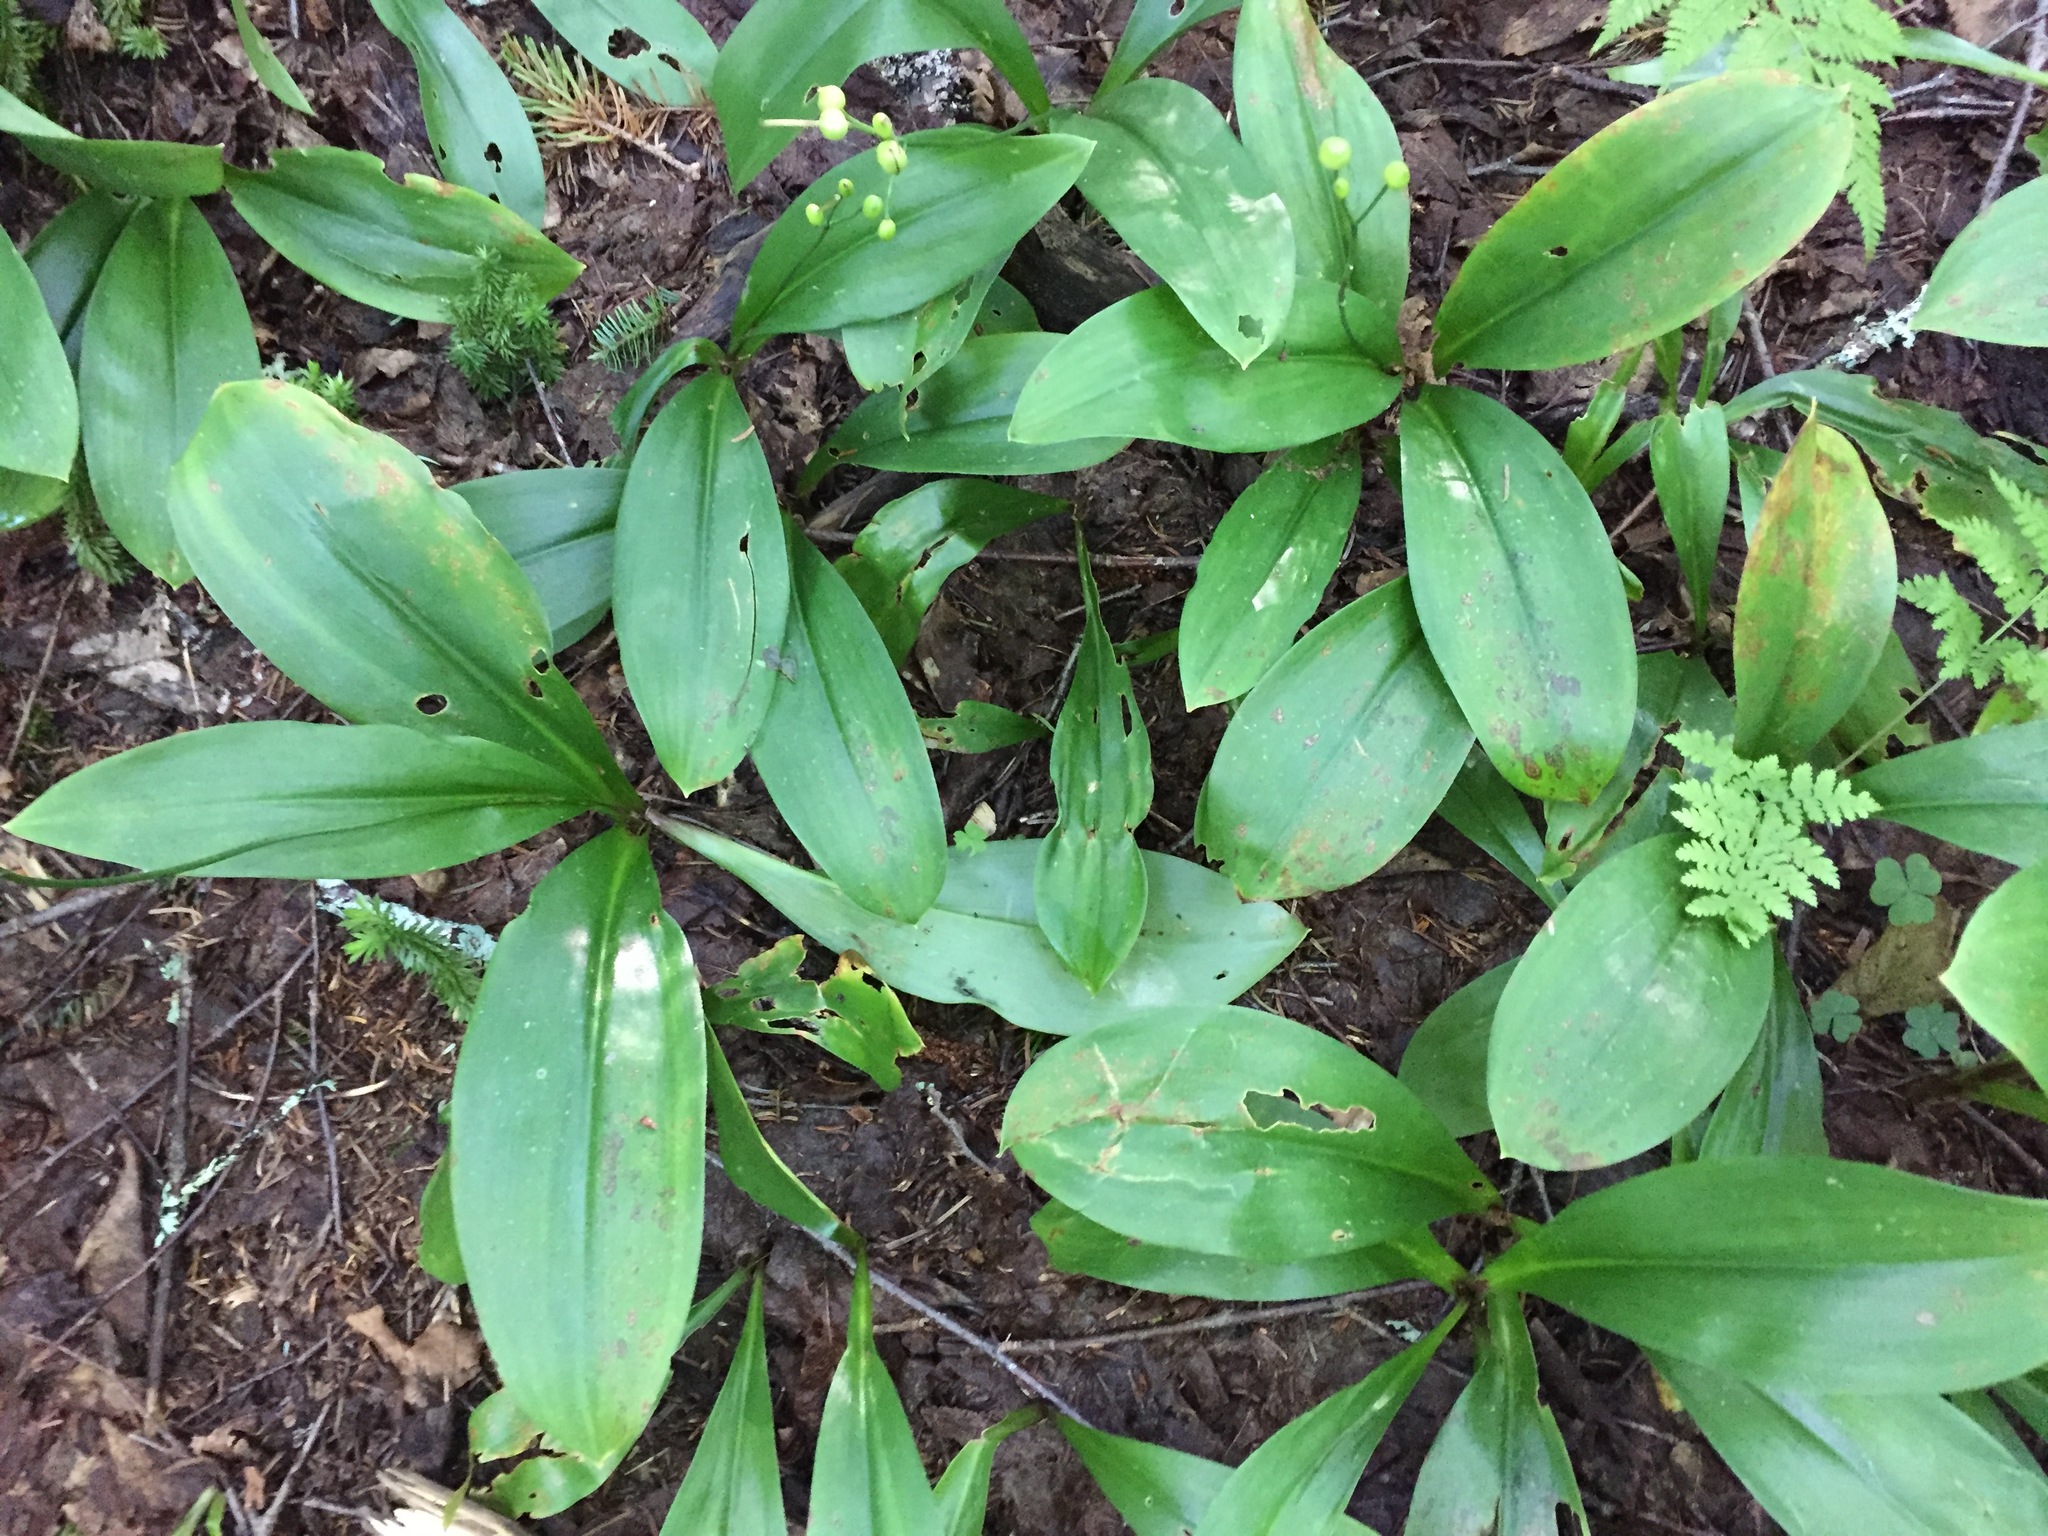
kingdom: Plantae
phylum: Tracheophyta
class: Liliopsida
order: Liliales
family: Liliaceae
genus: Clintonia
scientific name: Clintonia borealis
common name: Yellow clintonia
